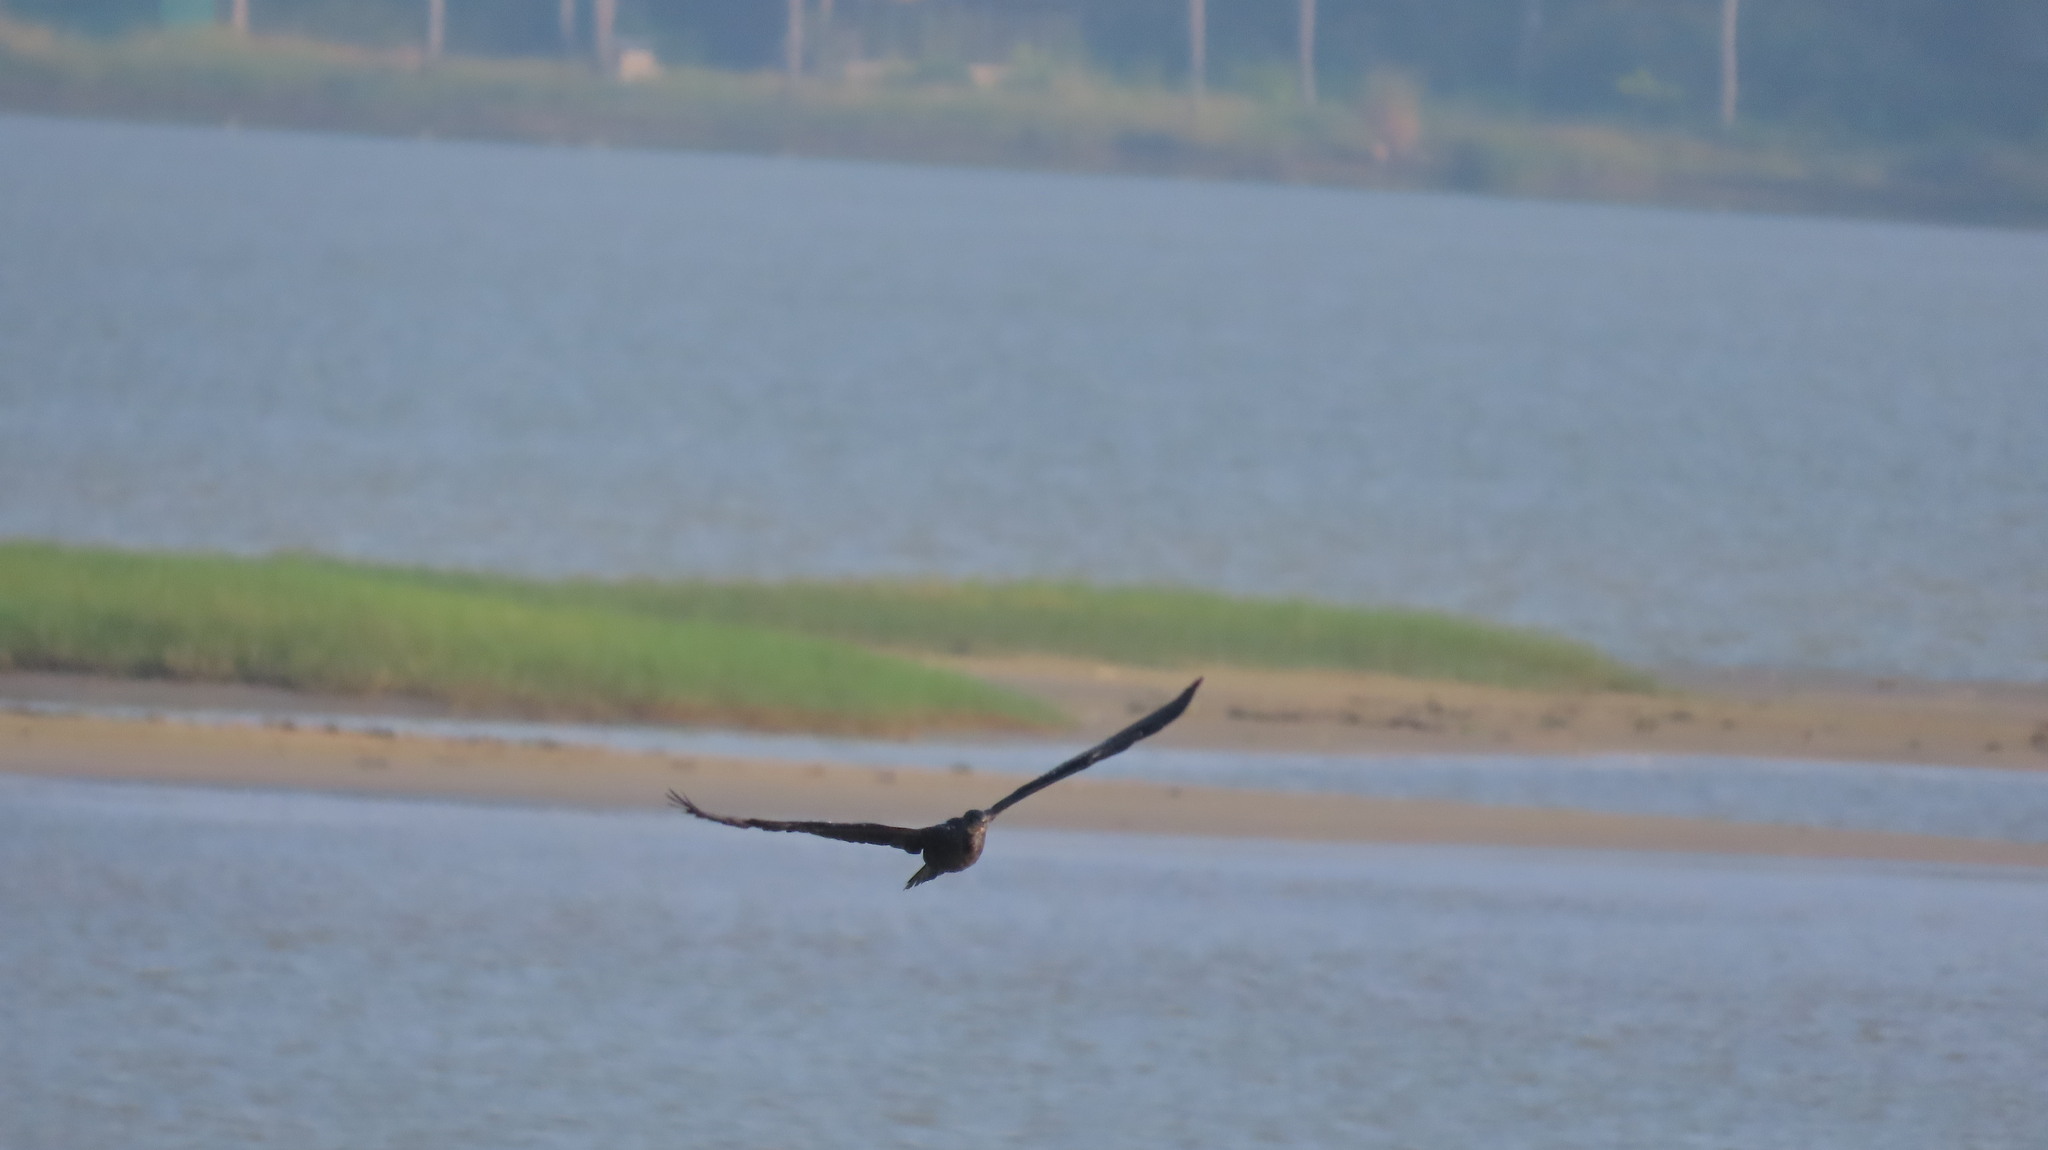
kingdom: Animalia
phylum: Chordata
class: Aves
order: Suliformes
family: Phalacrocoracidae
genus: Microcarbo
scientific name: Microcarbo niger
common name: Little cormorant
